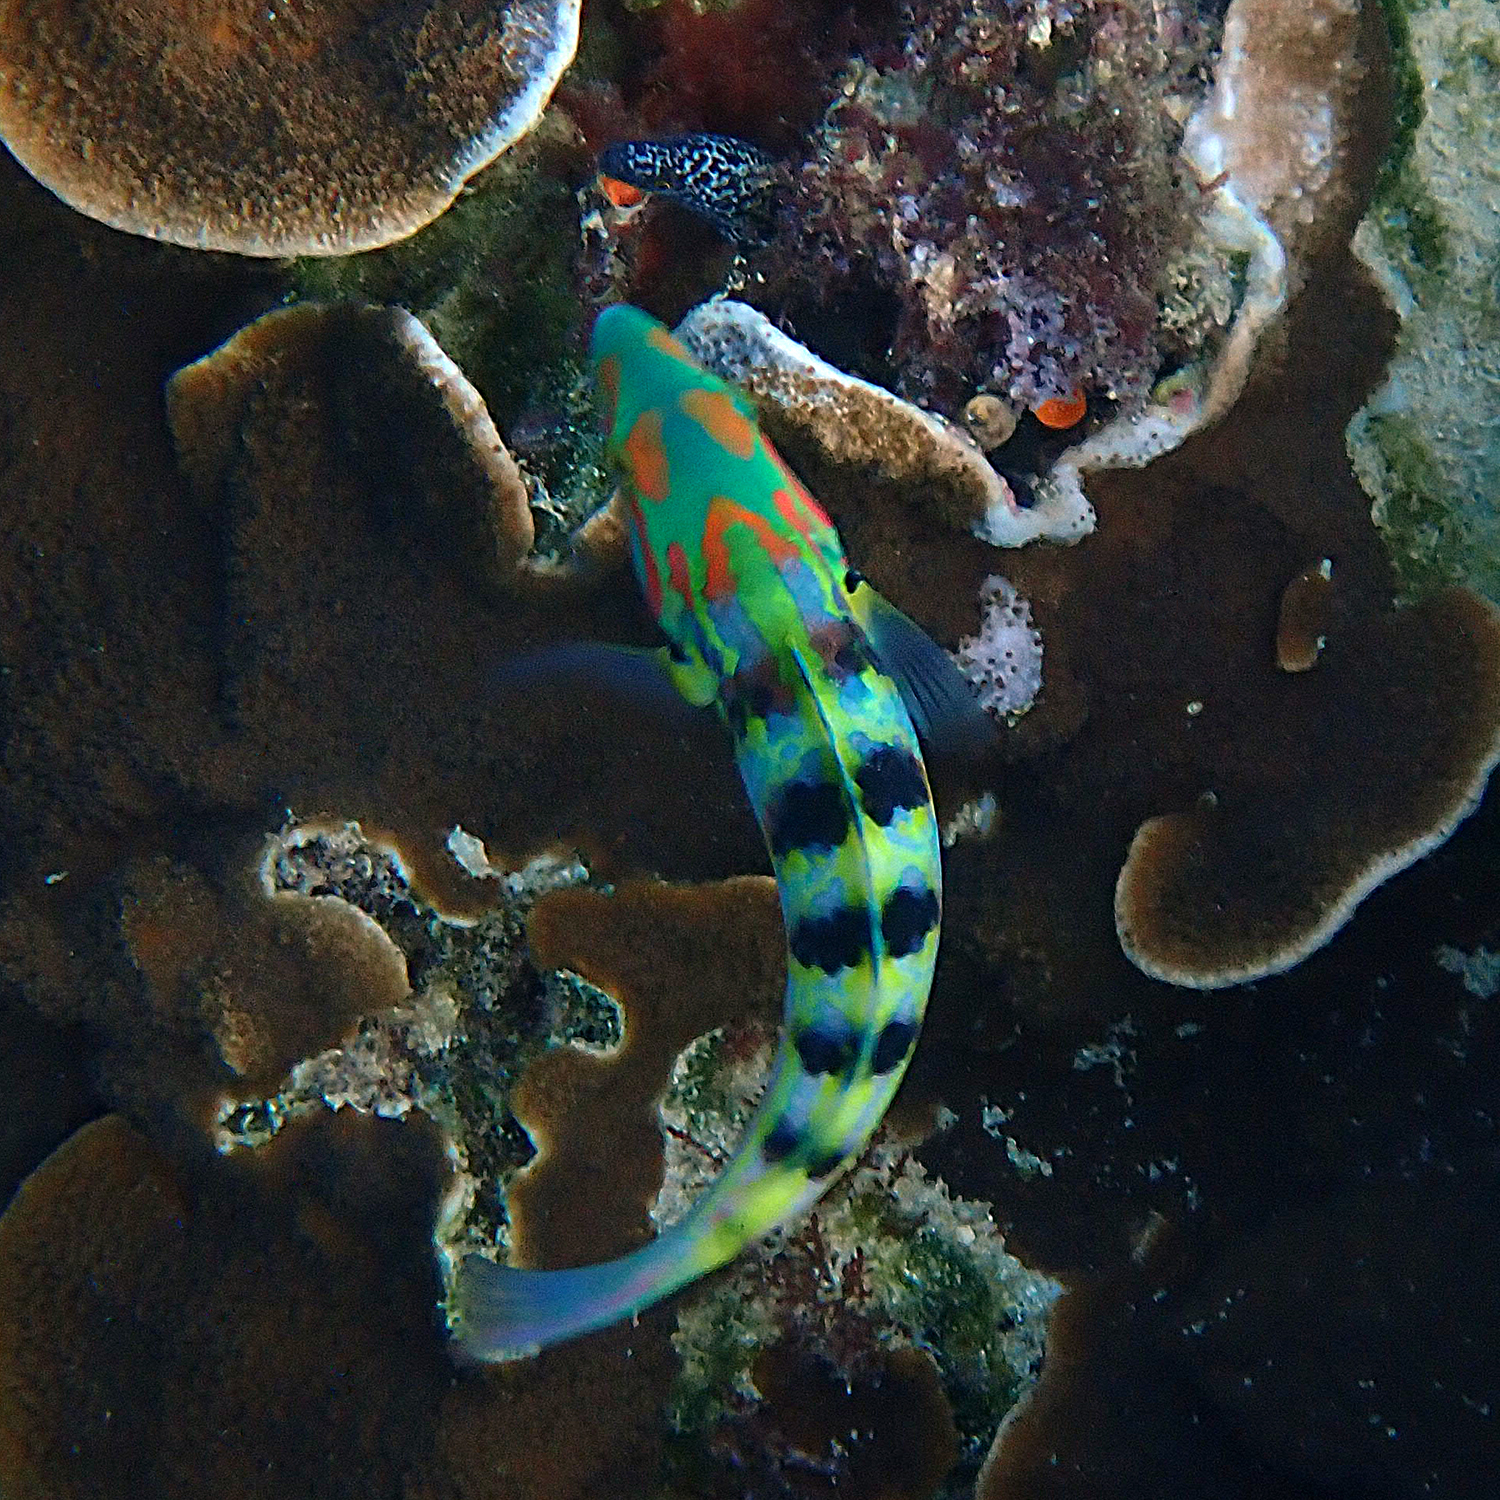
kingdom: Animalia
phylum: Chordata
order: Perciformes
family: Labridae
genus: Thalassoma
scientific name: Thalassoma hardwicke
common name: Sixbar wrasse
